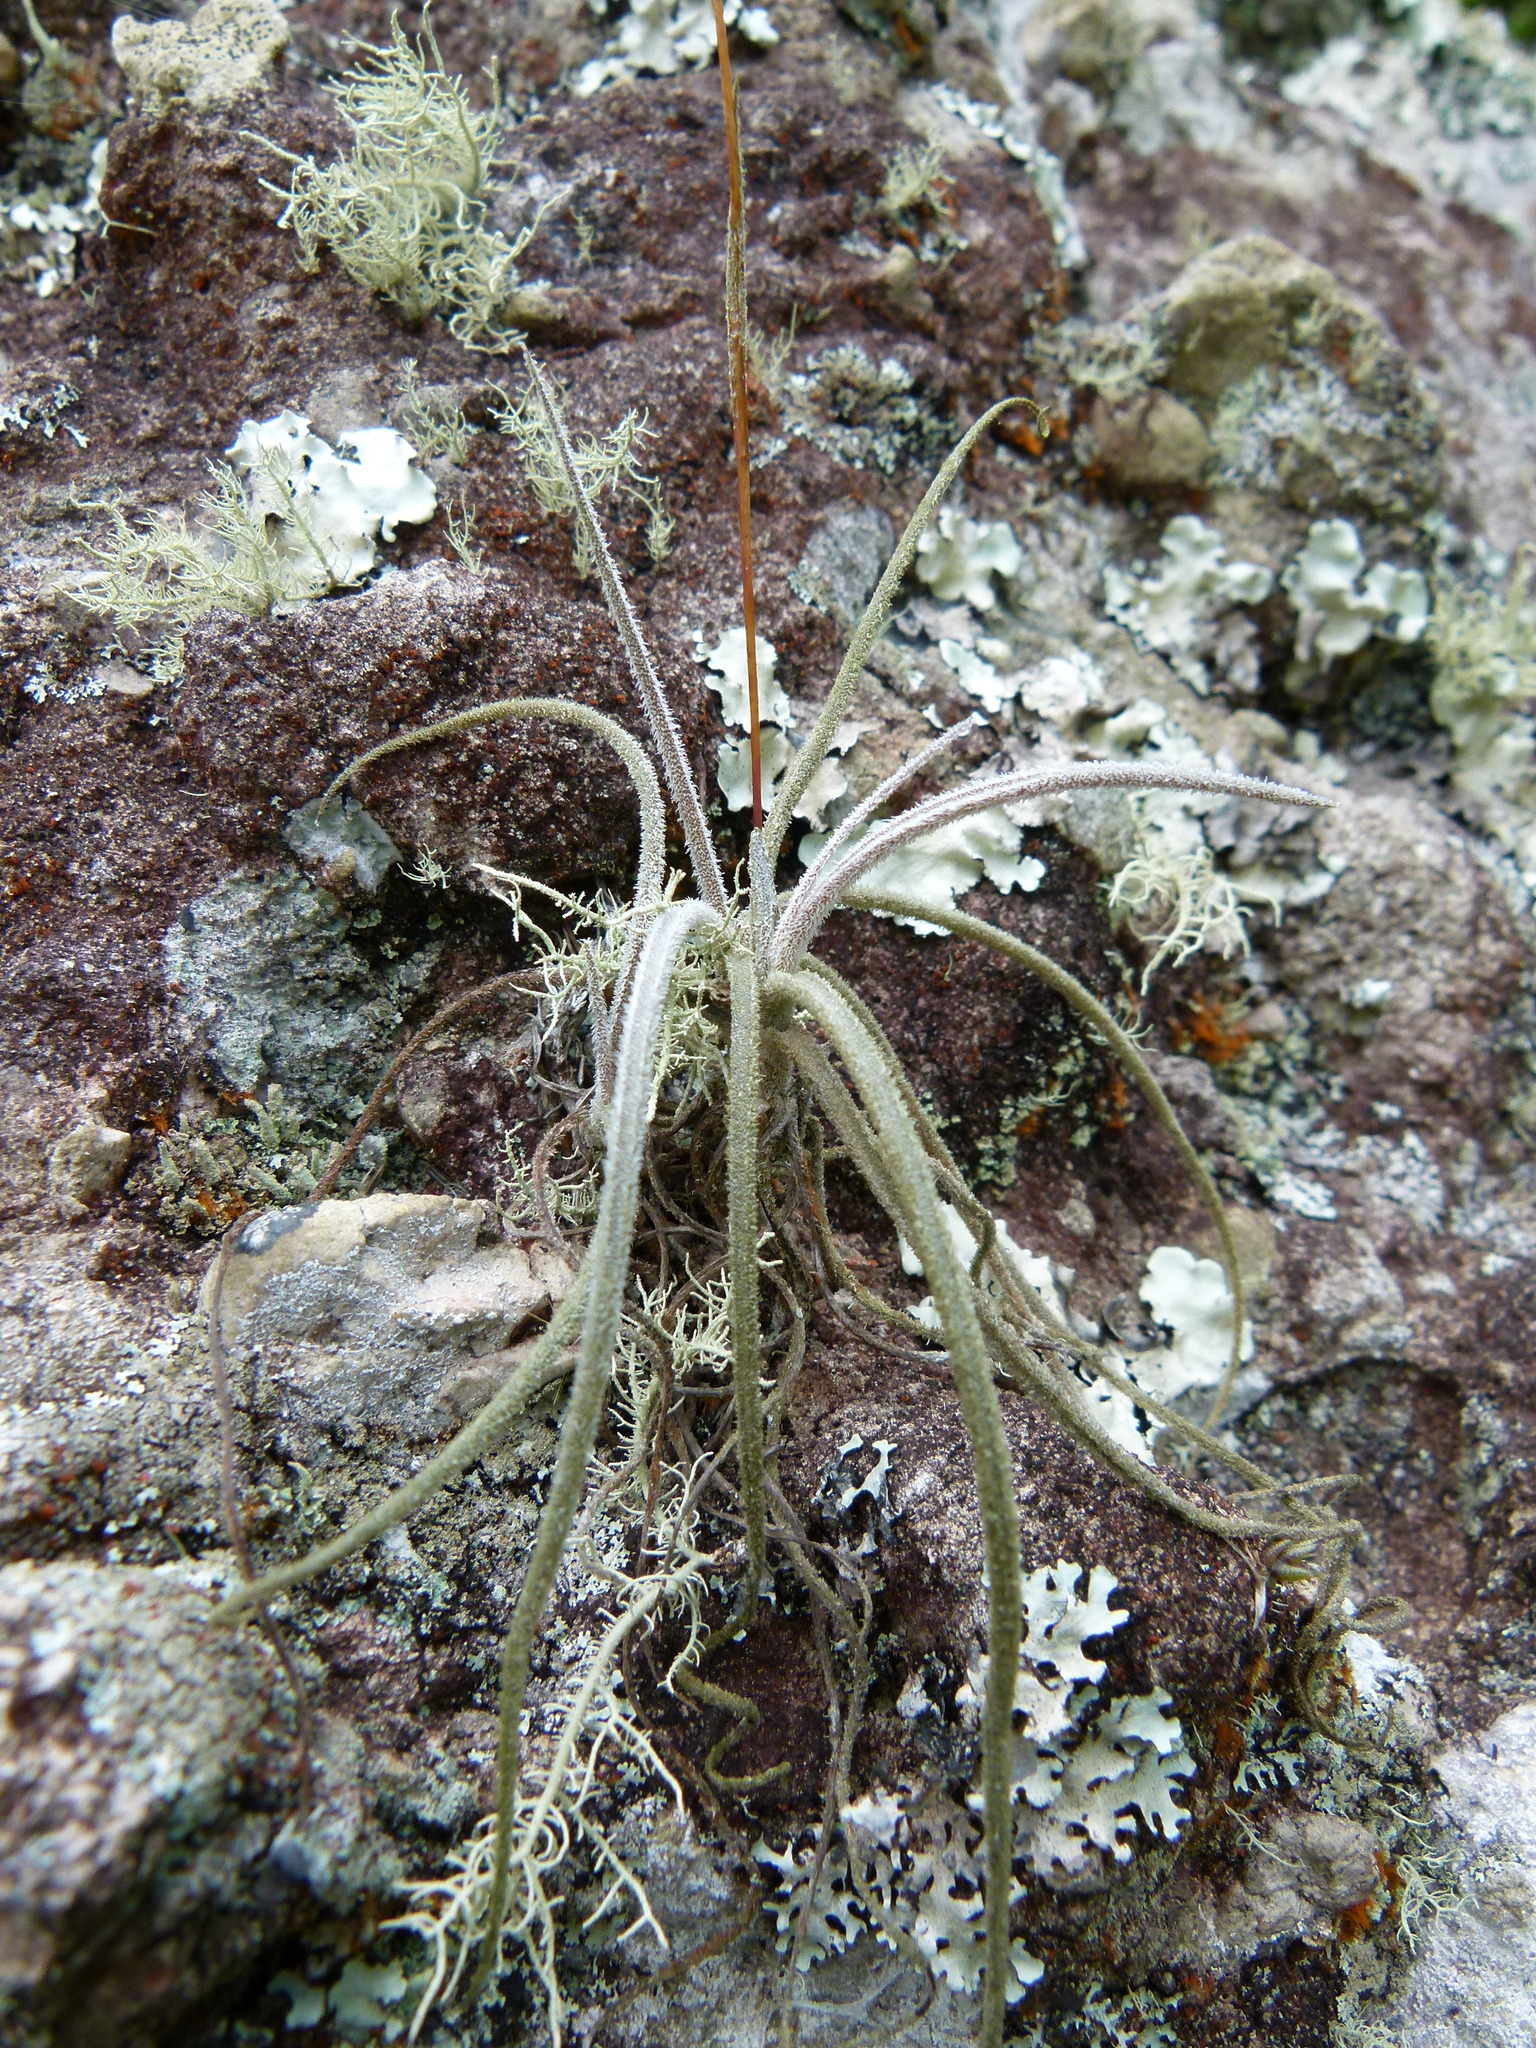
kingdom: Plantae
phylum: Tracheophyta
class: Liliopsida
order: Poales
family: Bromeliaceae
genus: Tillandsia
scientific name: Tillandsia recurvata
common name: Small ballmoss
